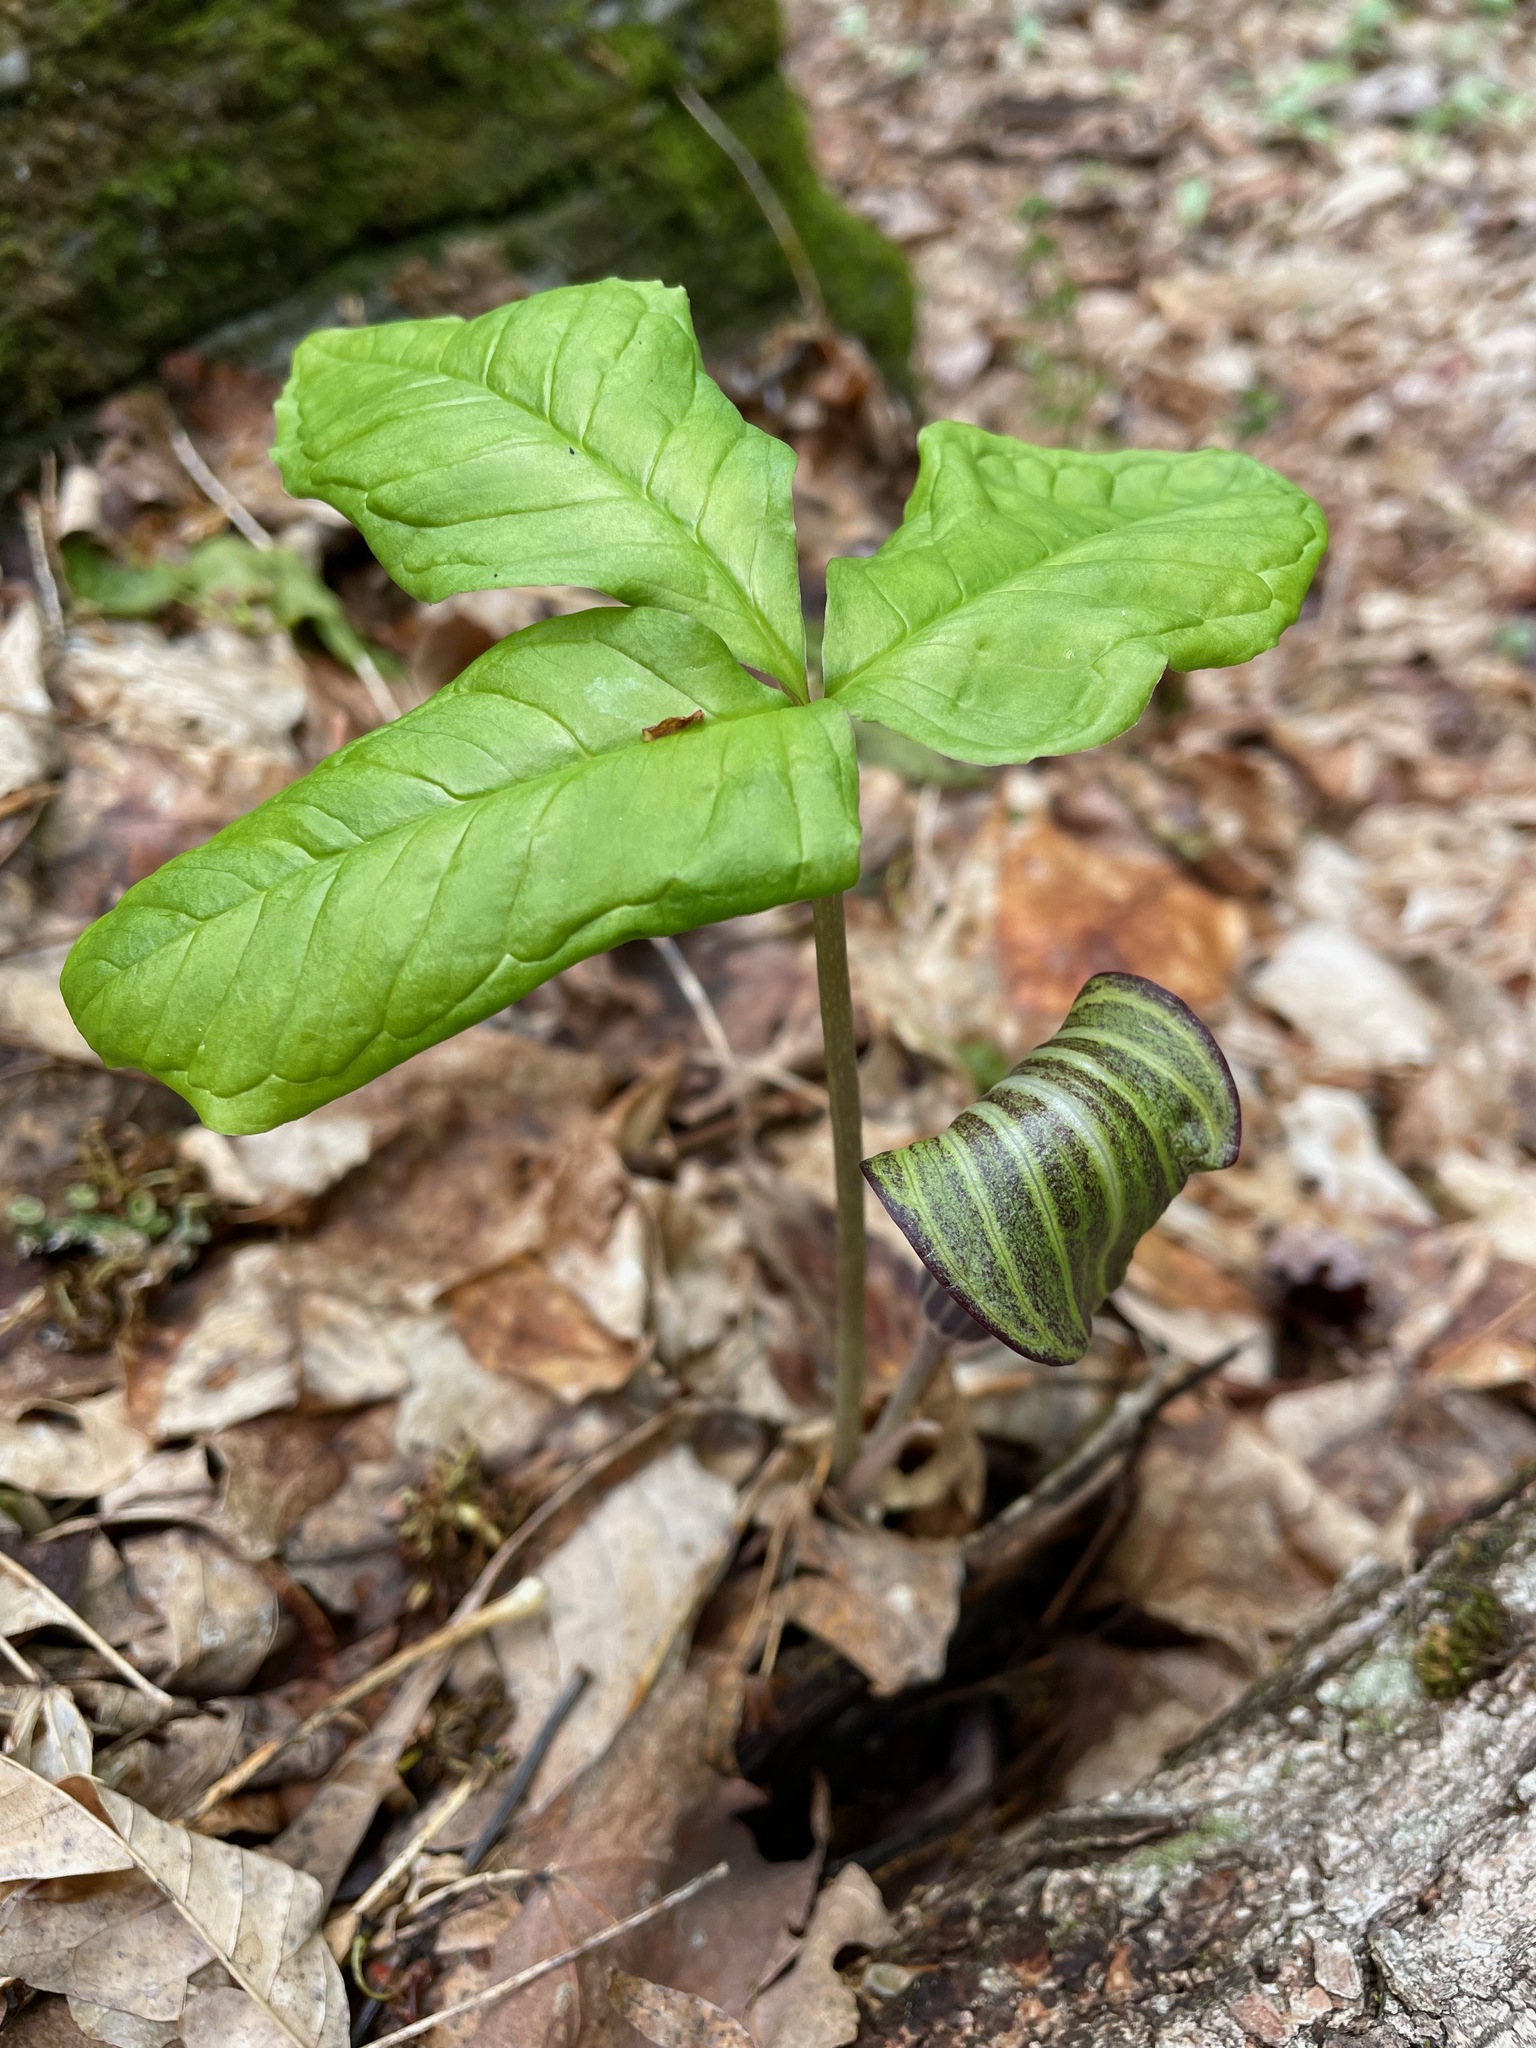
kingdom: Plantae
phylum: Tracheophyta
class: Liliopsida
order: Alismatales
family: Araceae
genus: Arisaema
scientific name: Arisaema triphyllum
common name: Jack-in-the-pulpit
